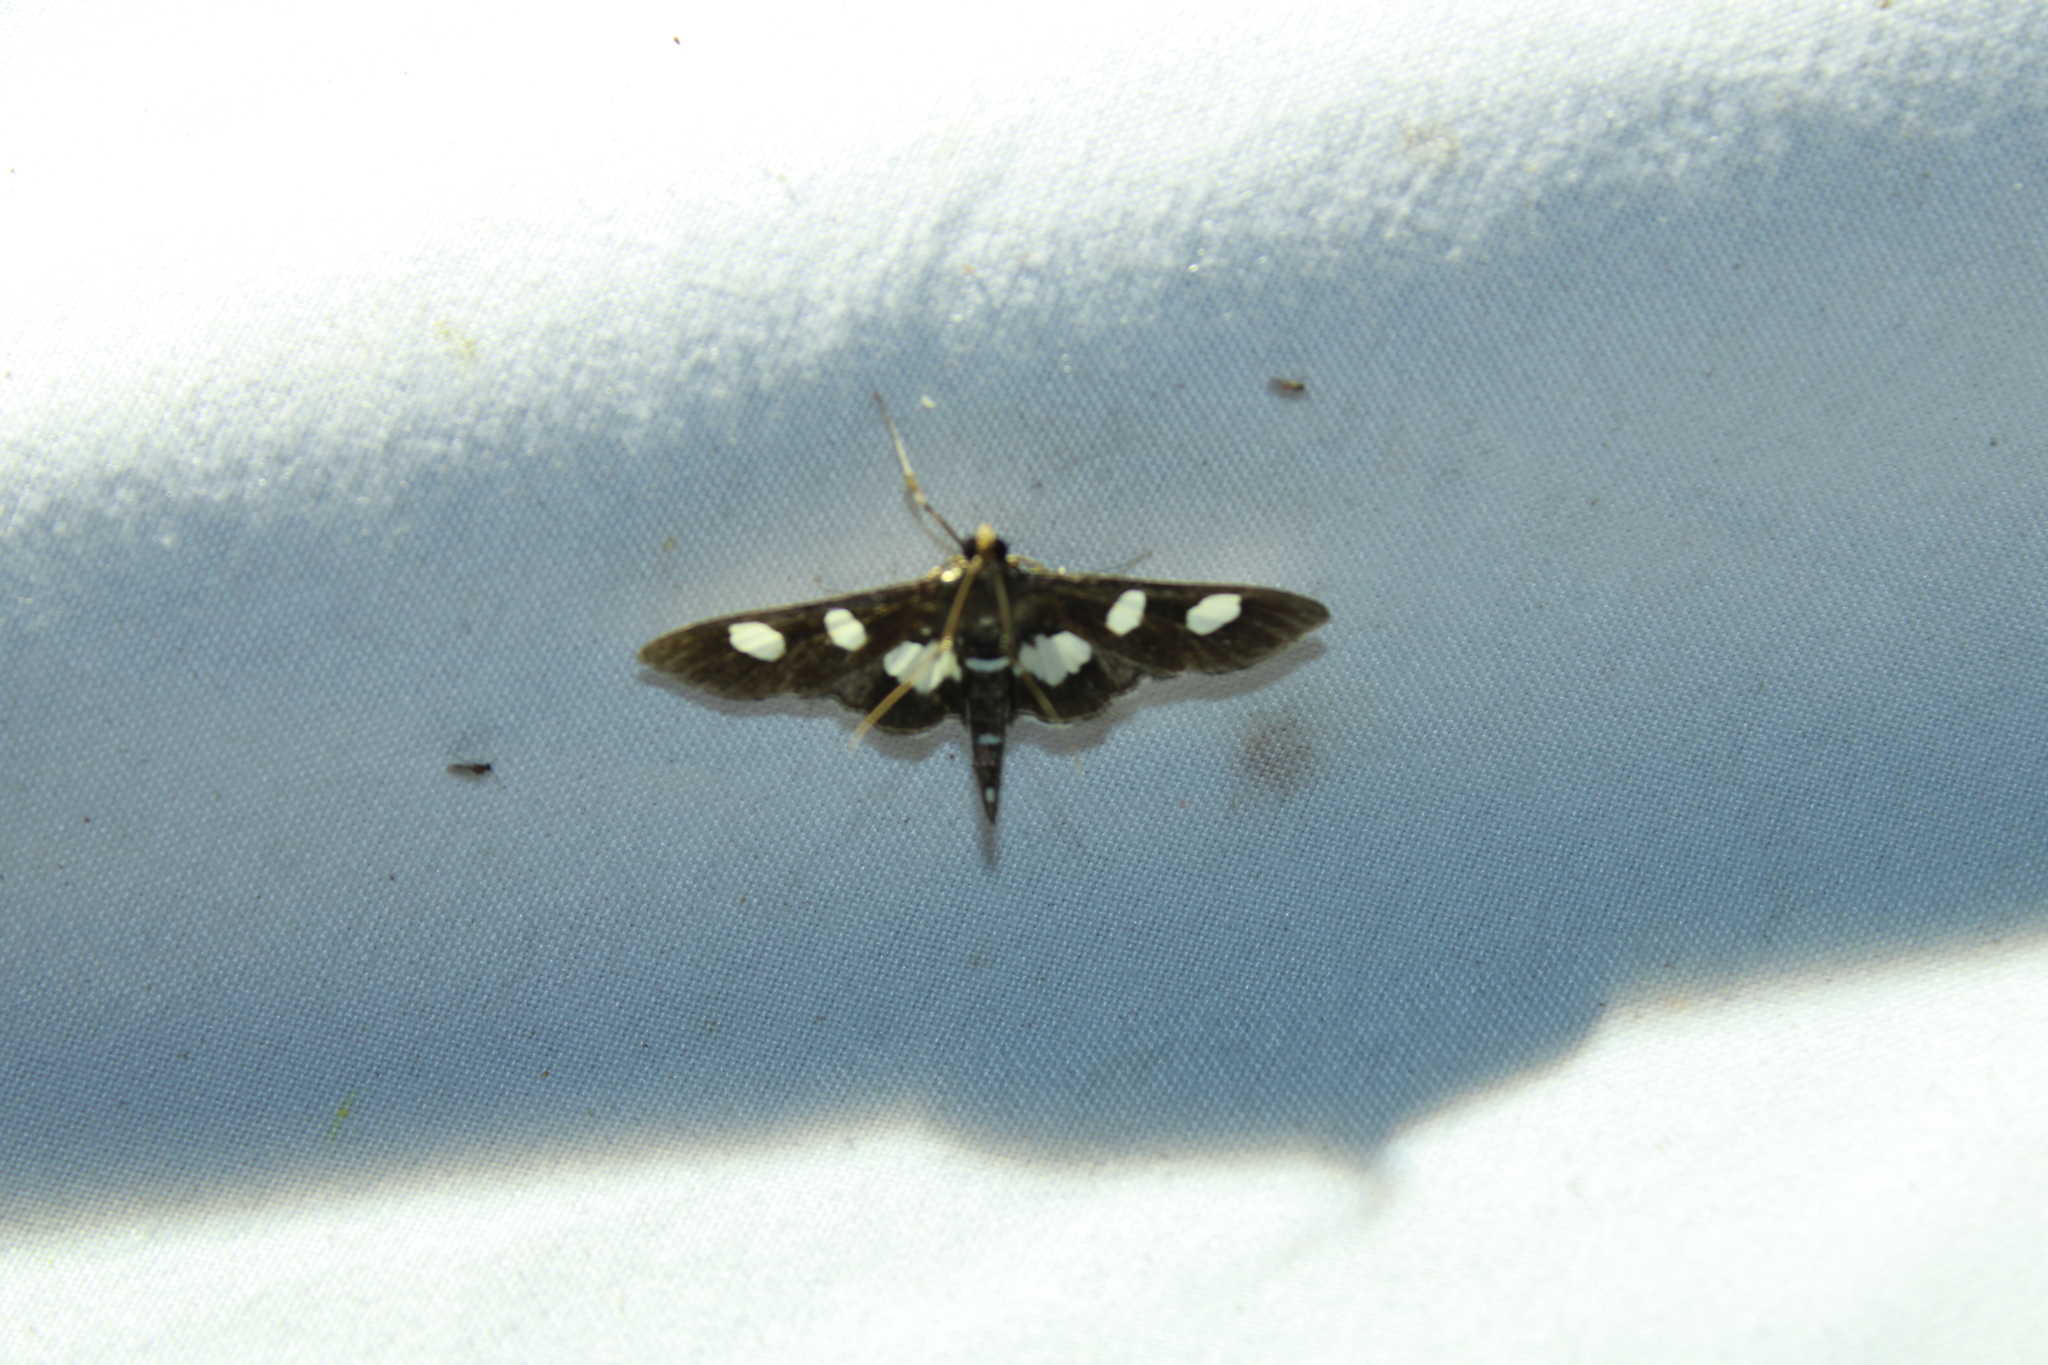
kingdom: Animalia
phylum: Arthropoda
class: Insecta
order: Lepidoptera
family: Crambidae
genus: Desmia
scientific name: Desmia
